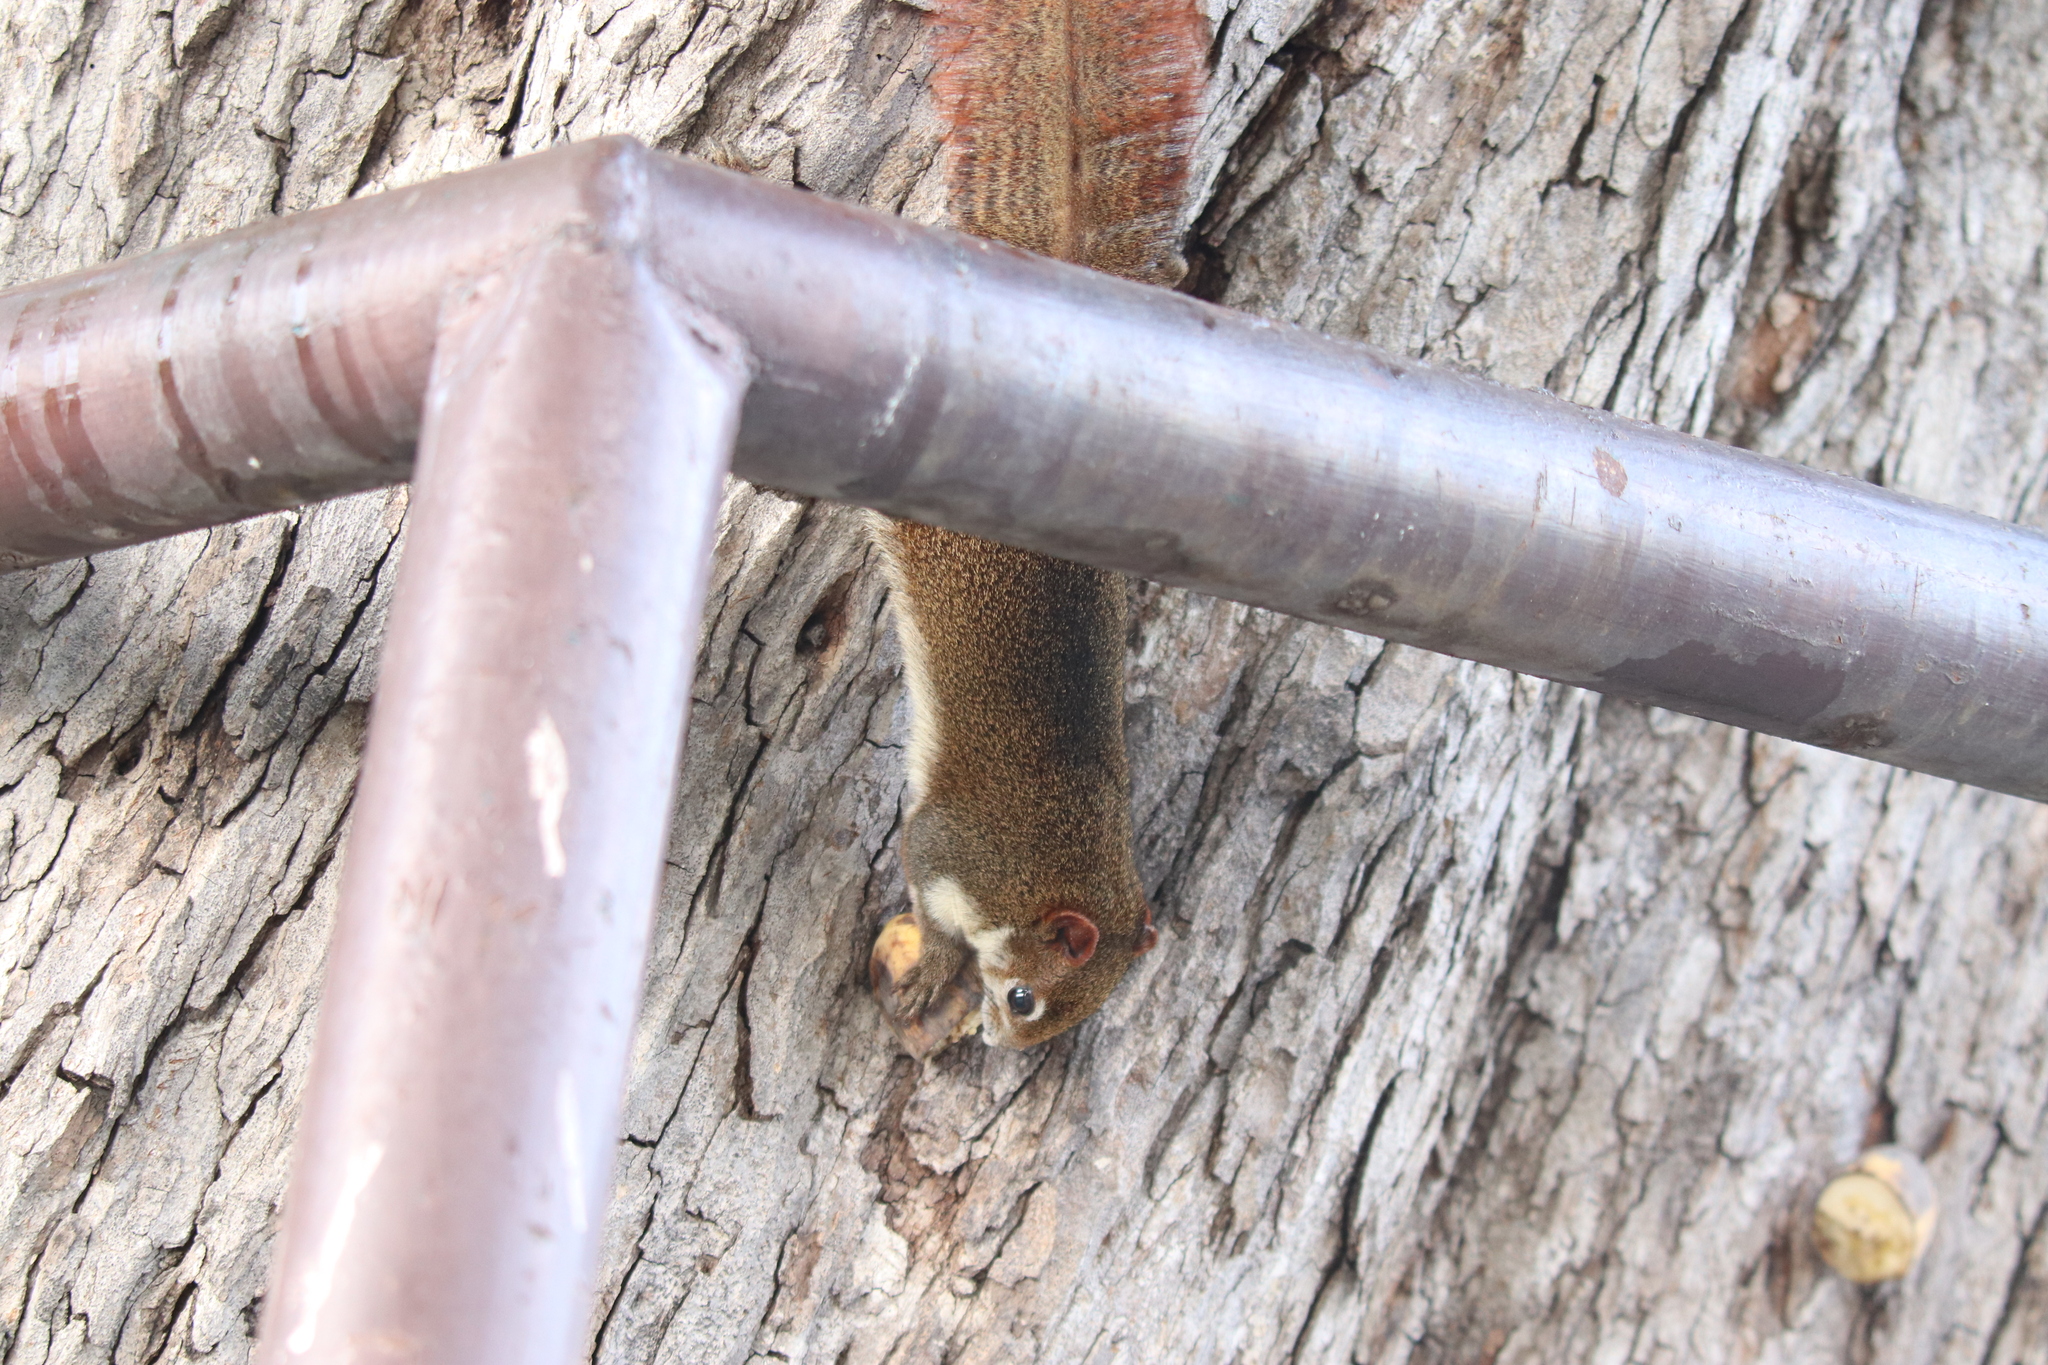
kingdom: Animalia
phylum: Chordata
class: Mammalia
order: Rodentia
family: Sciuridae
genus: Callosciurus
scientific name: Callosciurus finlaysonii
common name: Finlayson's squirrel
